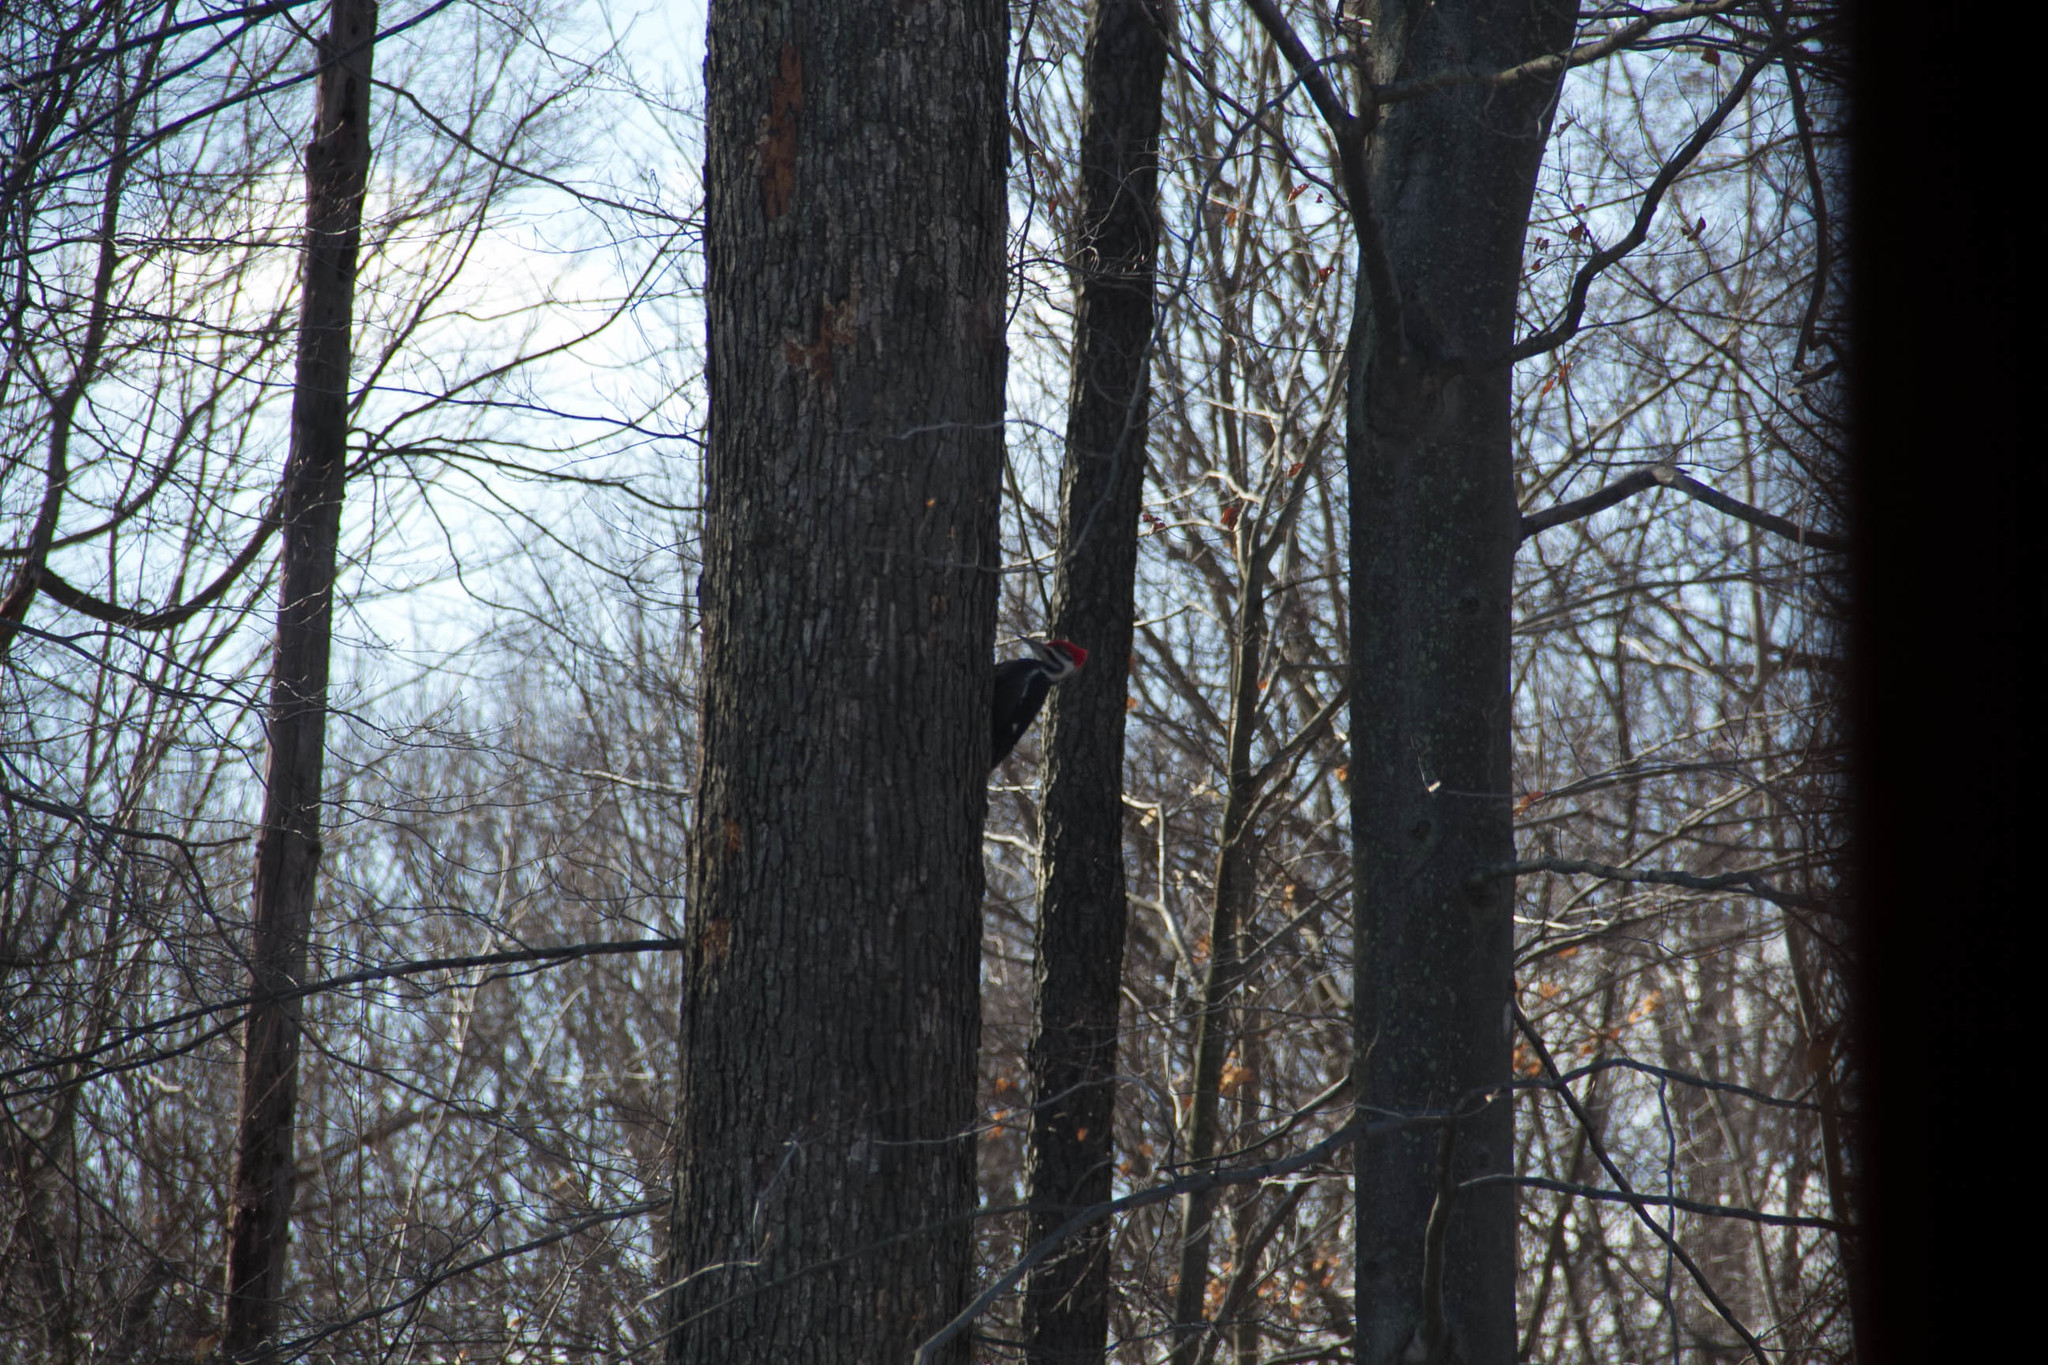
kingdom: Animalia
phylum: Chordata
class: Aves
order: Piciformes
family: Picidae
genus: Dryocopus
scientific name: Dryocopus pileatus
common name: Pileated woodpecker
